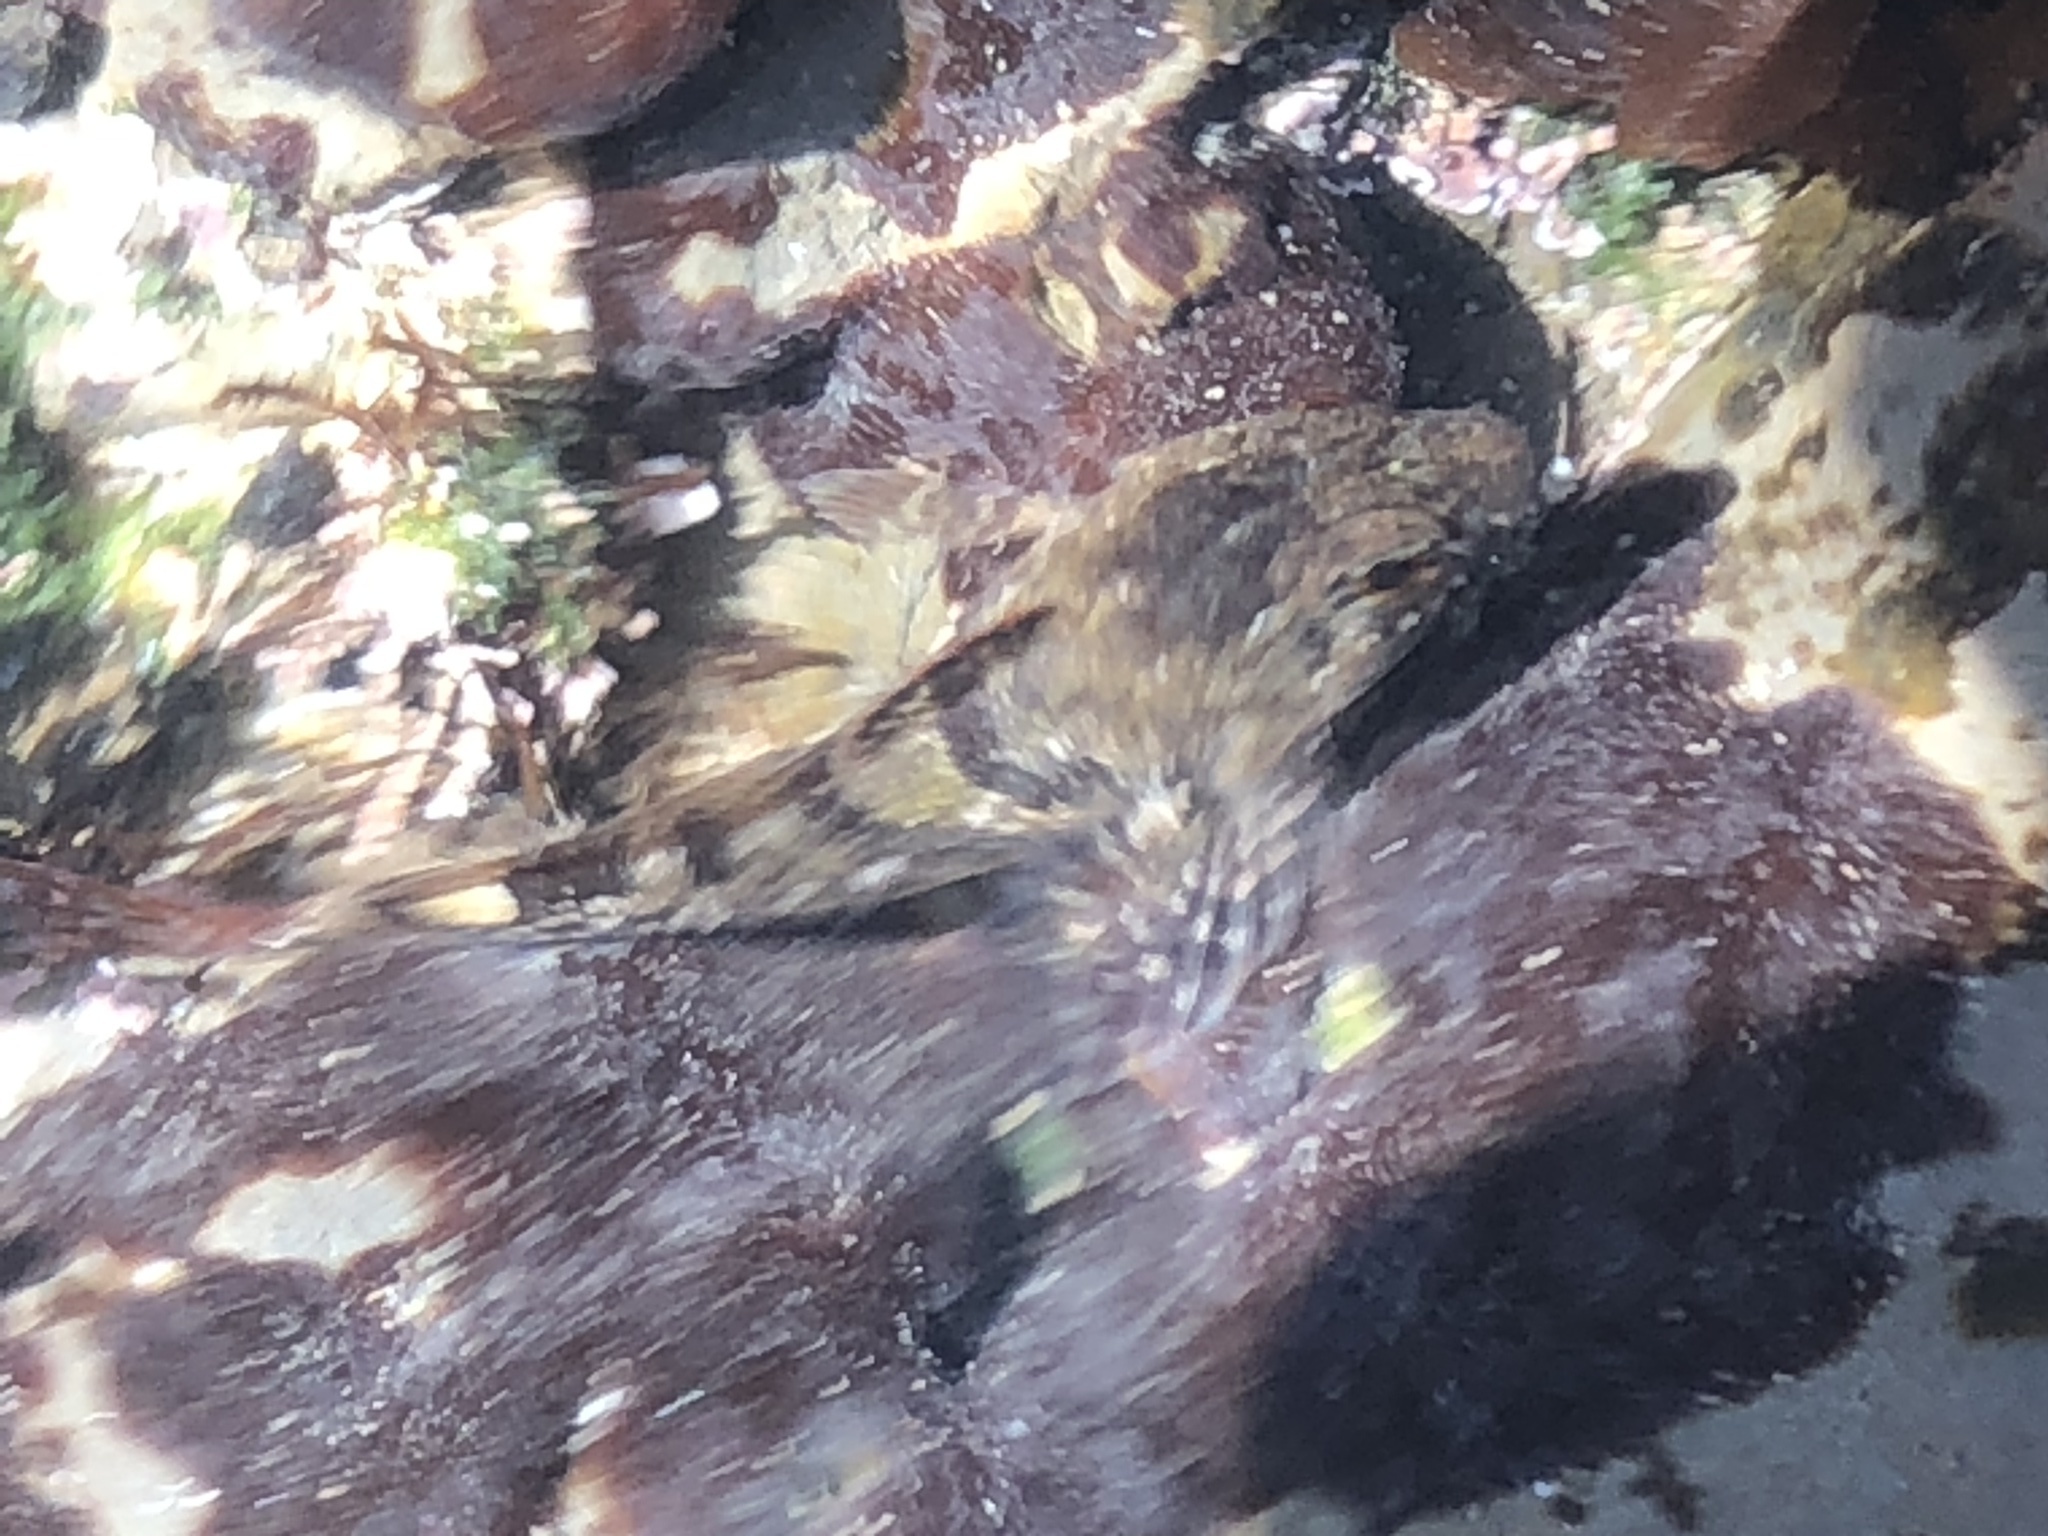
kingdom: Animalia
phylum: Chordata
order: Scorpaeniformes
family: Cottidae
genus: Oligocottus
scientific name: Oligocottus maculosus
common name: Tidepool sculpin
